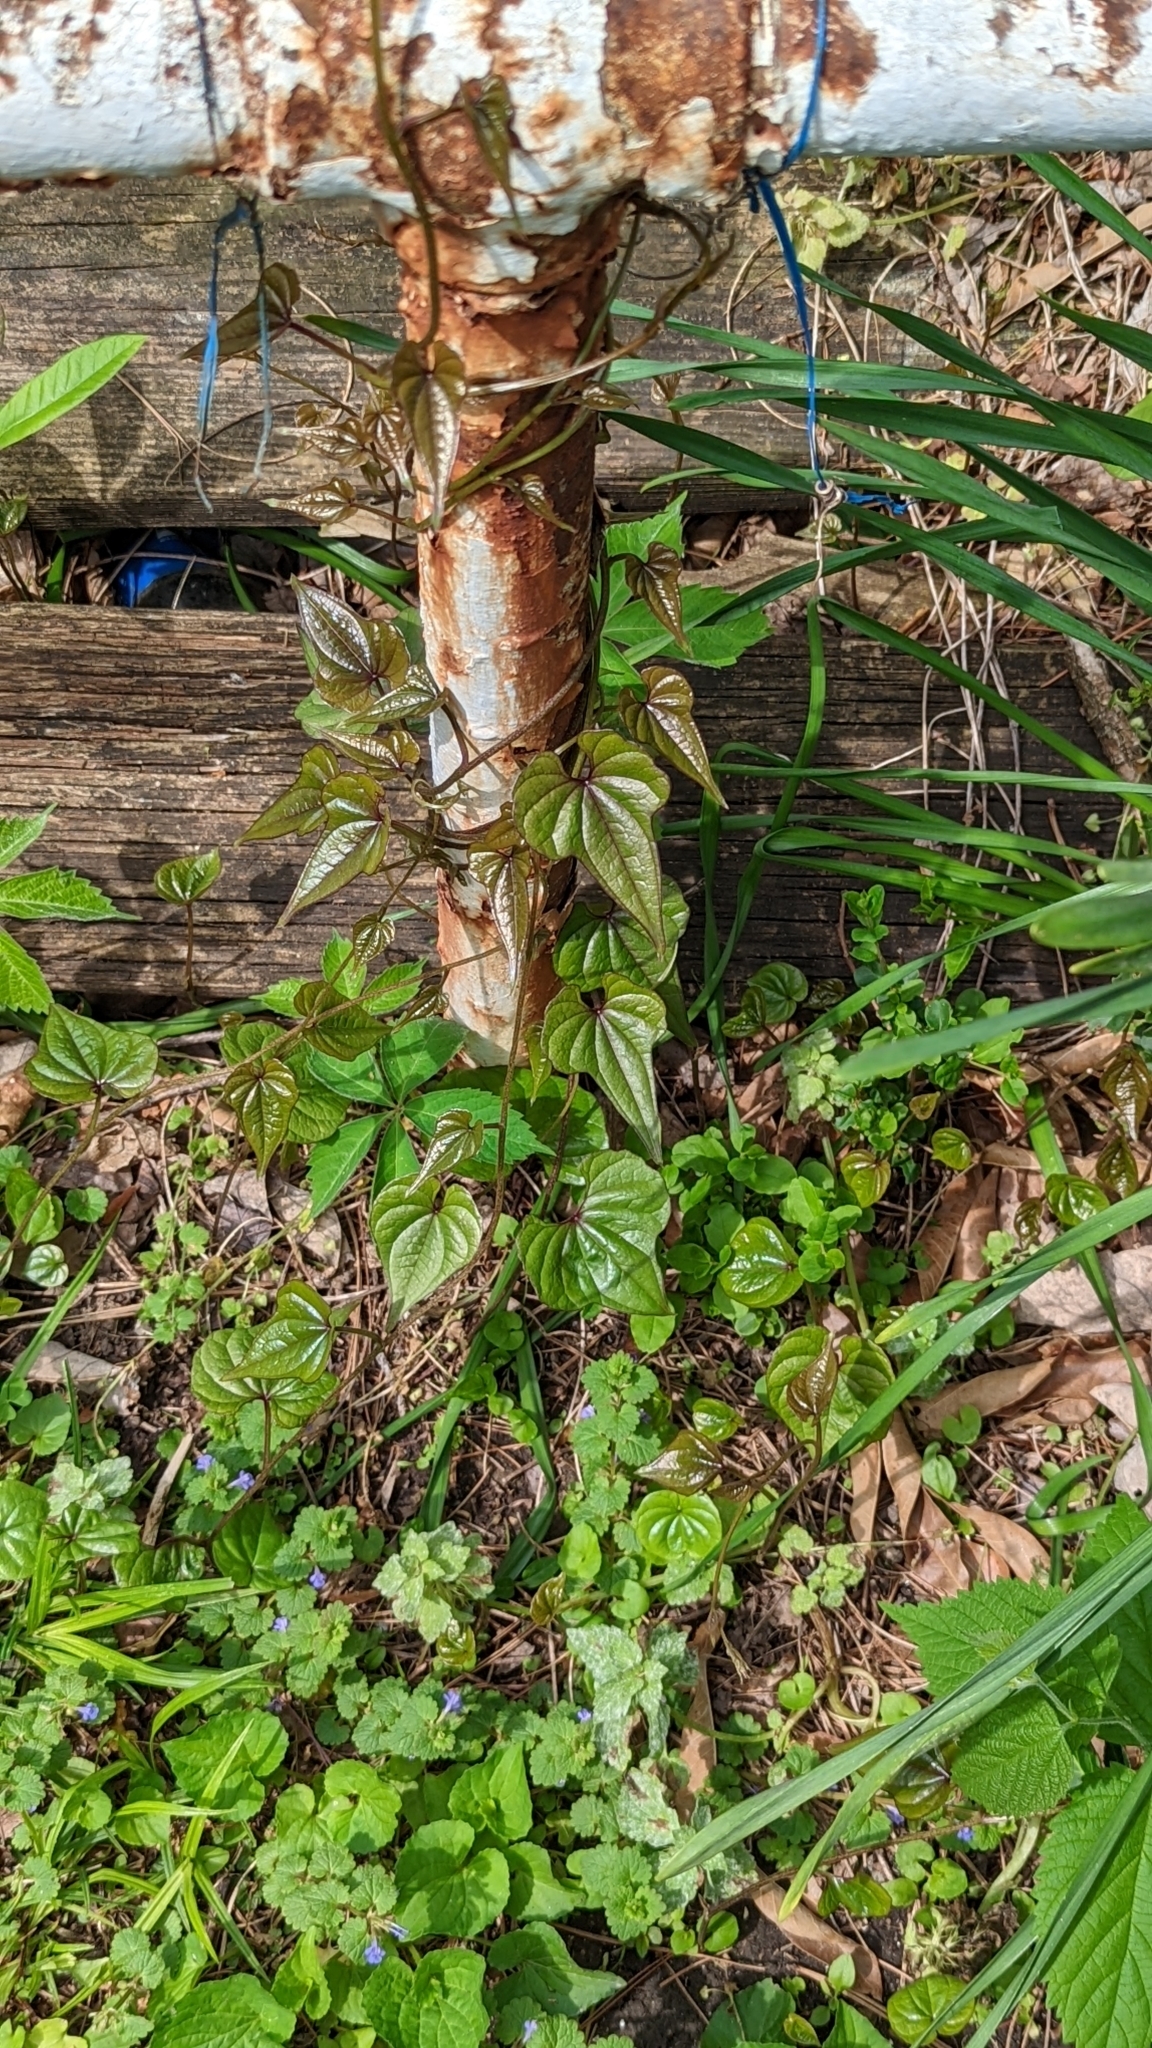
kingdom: Plantae
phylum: Tracheophyta
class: Liliopsida
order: Dioscoreales
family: Dioscoreaceae
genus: Dioscorea
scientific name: Dioscorea polystachya
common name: Chinese yam
